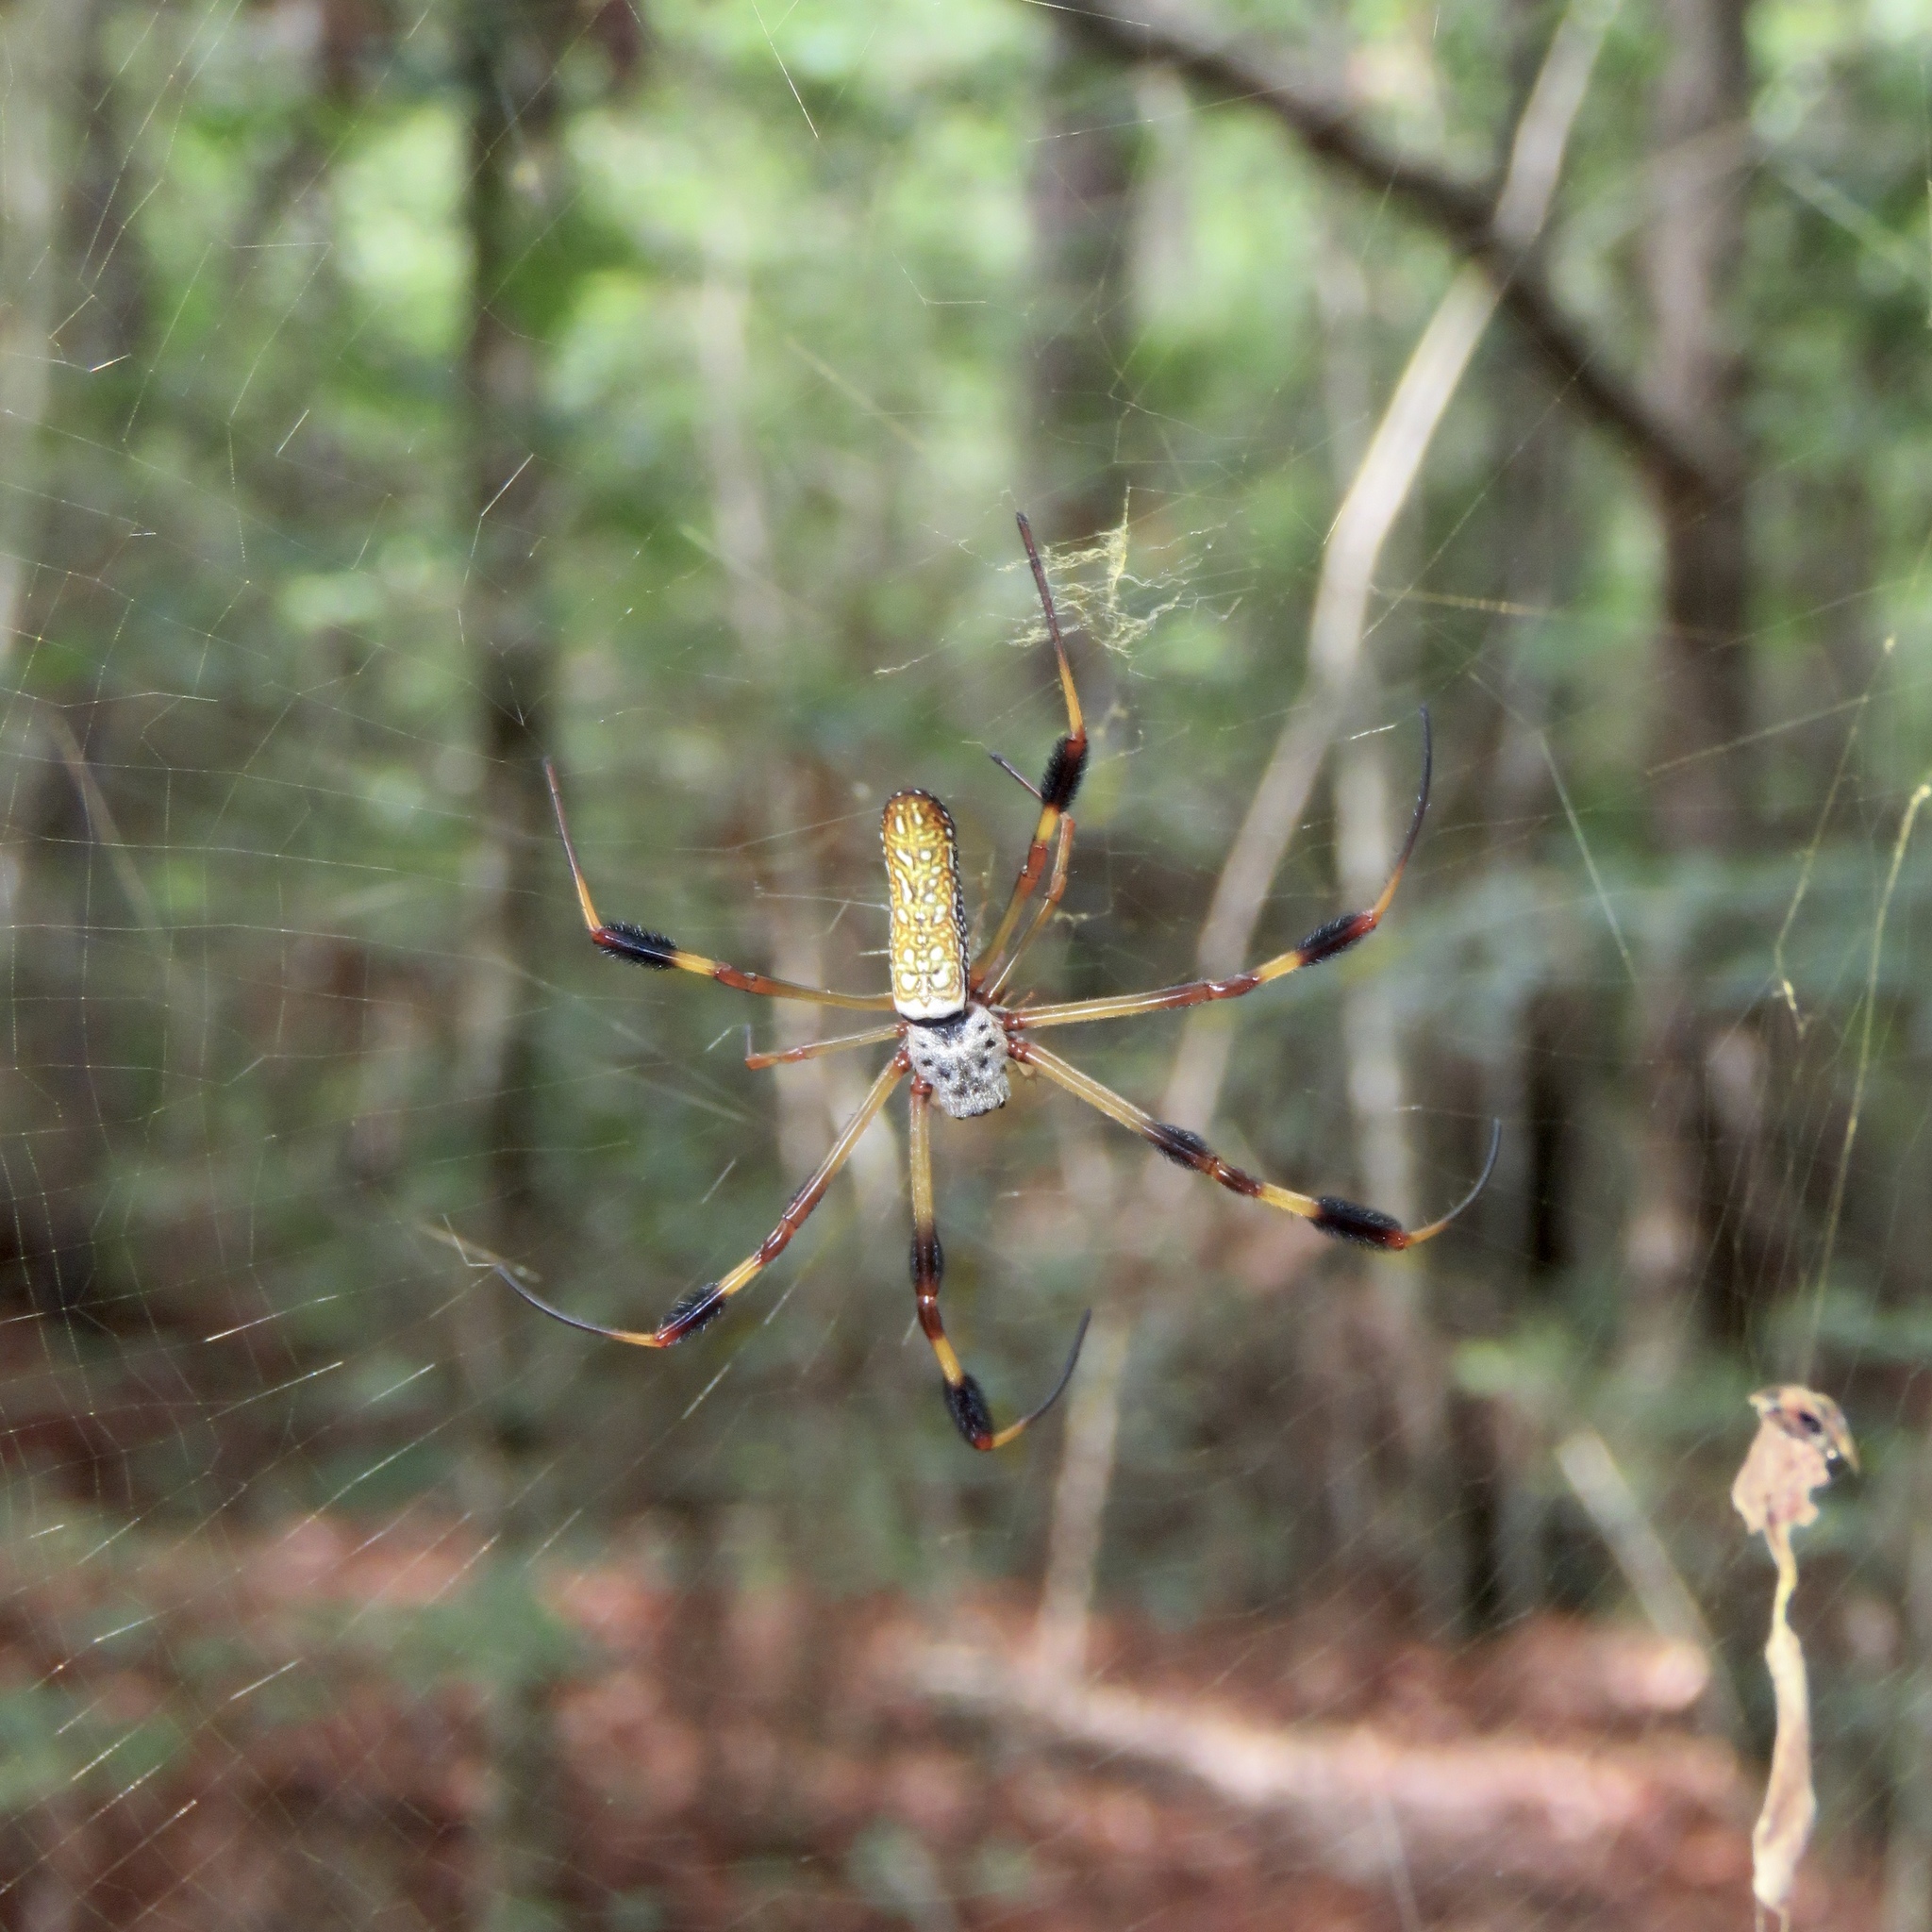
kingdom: Animalia
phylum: Arthropoda
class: Arachnida
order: Araneae
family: Araneidae
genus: Trichonephila
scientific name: Trichonephila clavipes
